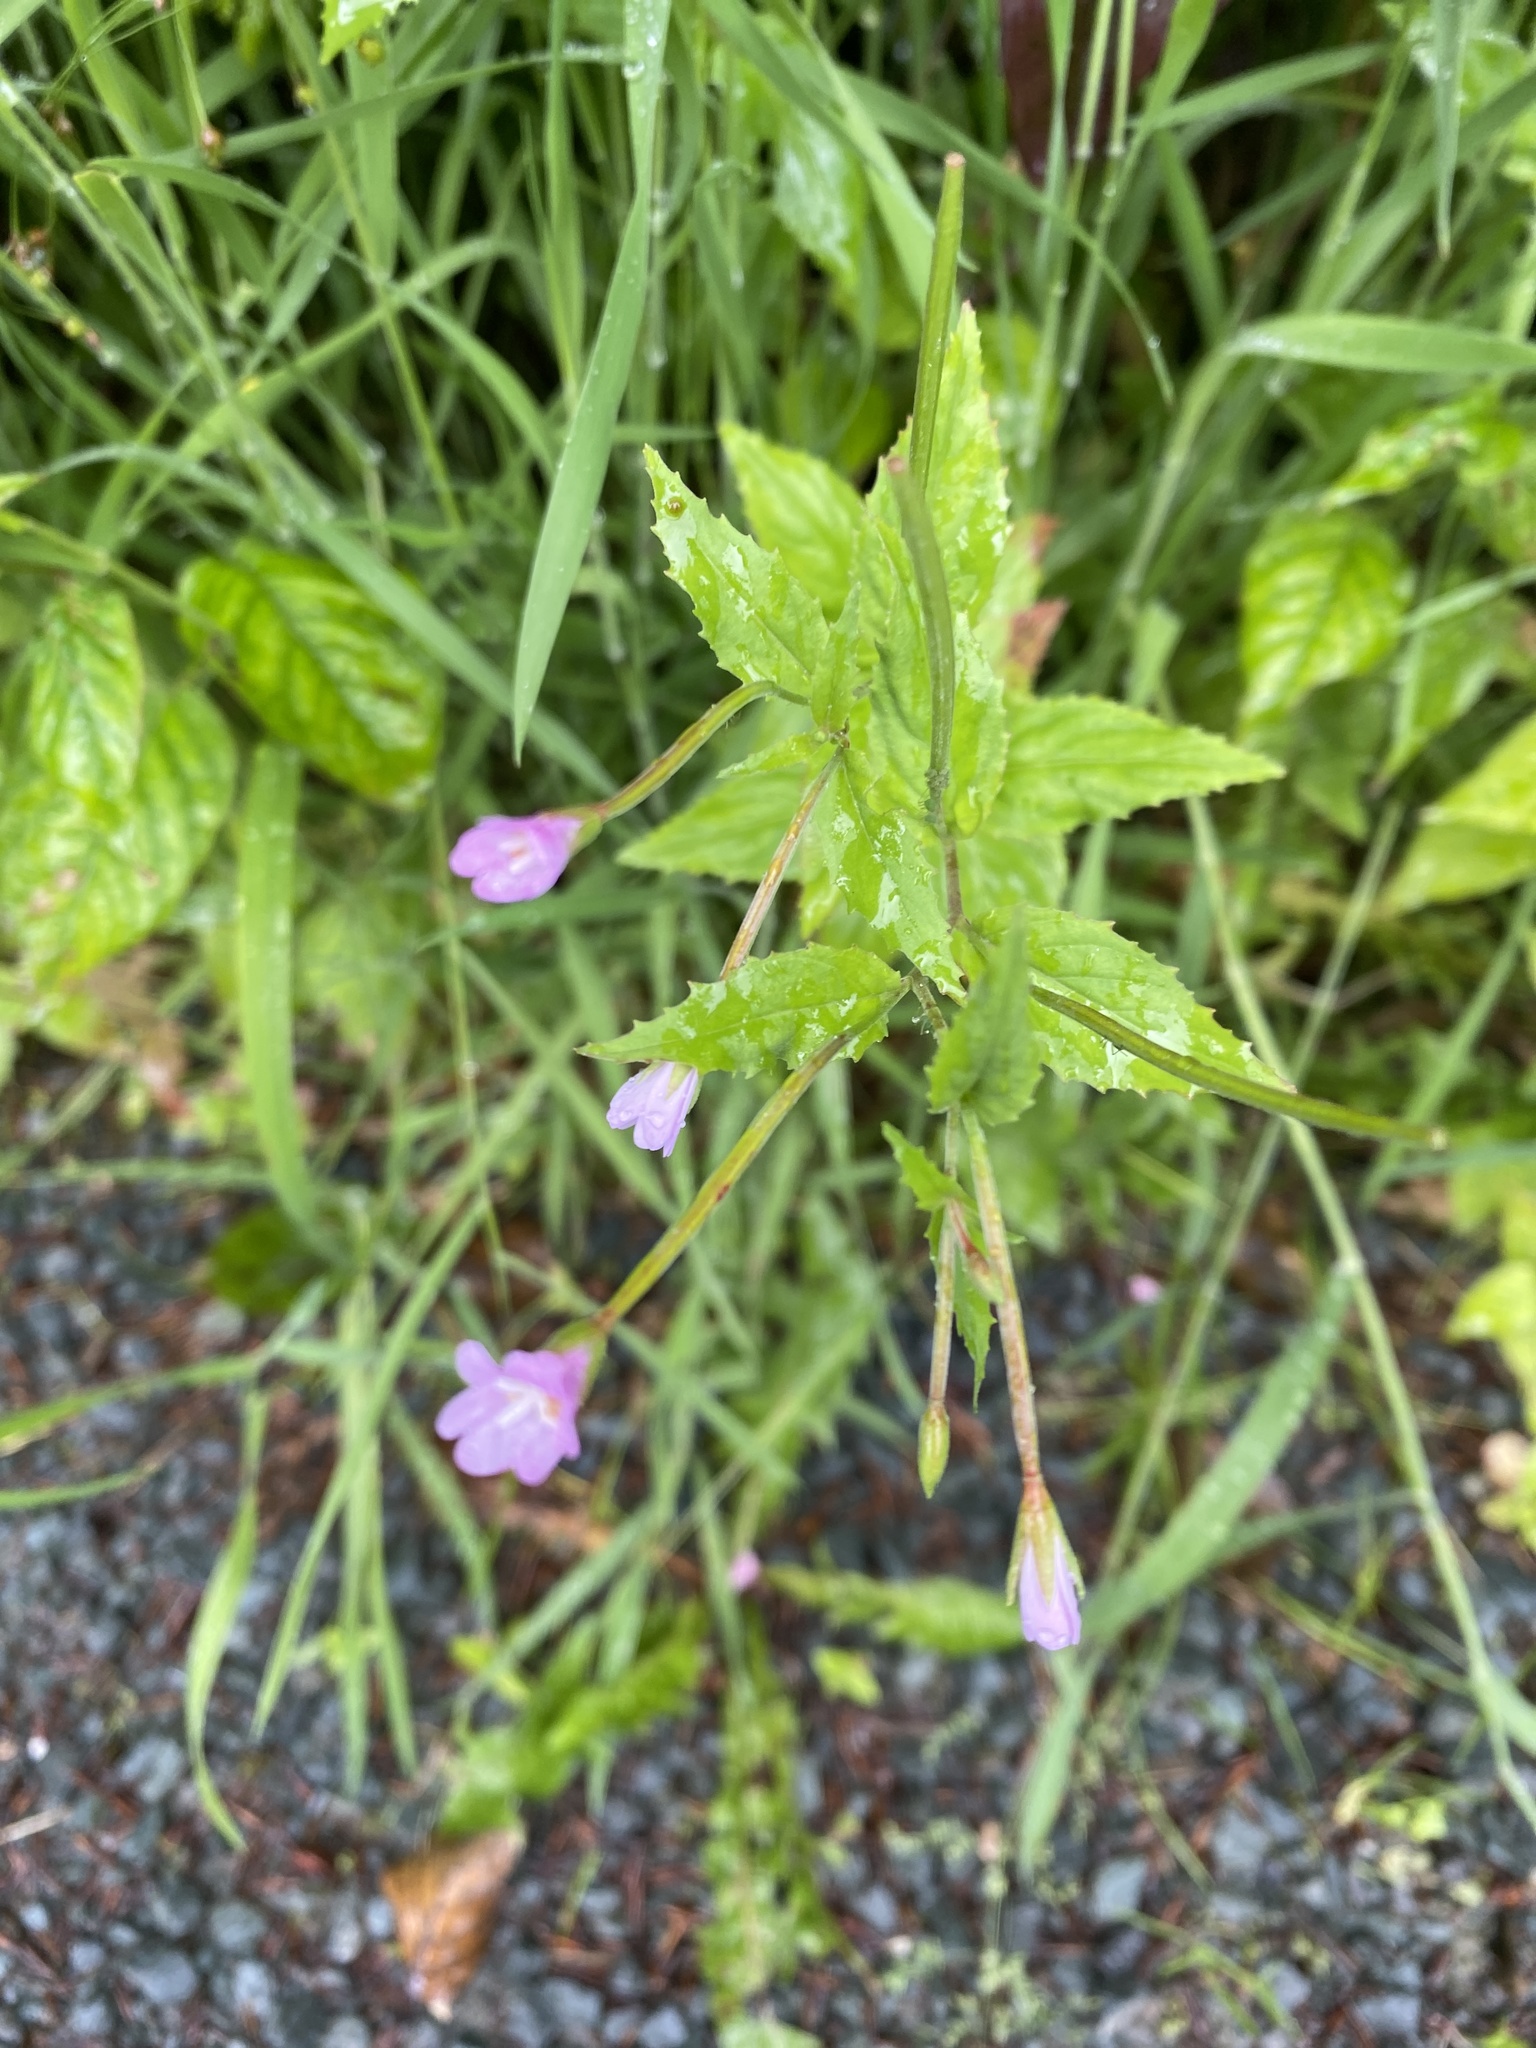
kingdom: Plantae
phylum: Tracheophyta
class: Magnoliopsida
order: Myrtales
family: Onagraceae
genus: Epilobium
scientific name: Epilobium montanum
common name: Broad-leaved willowherb
